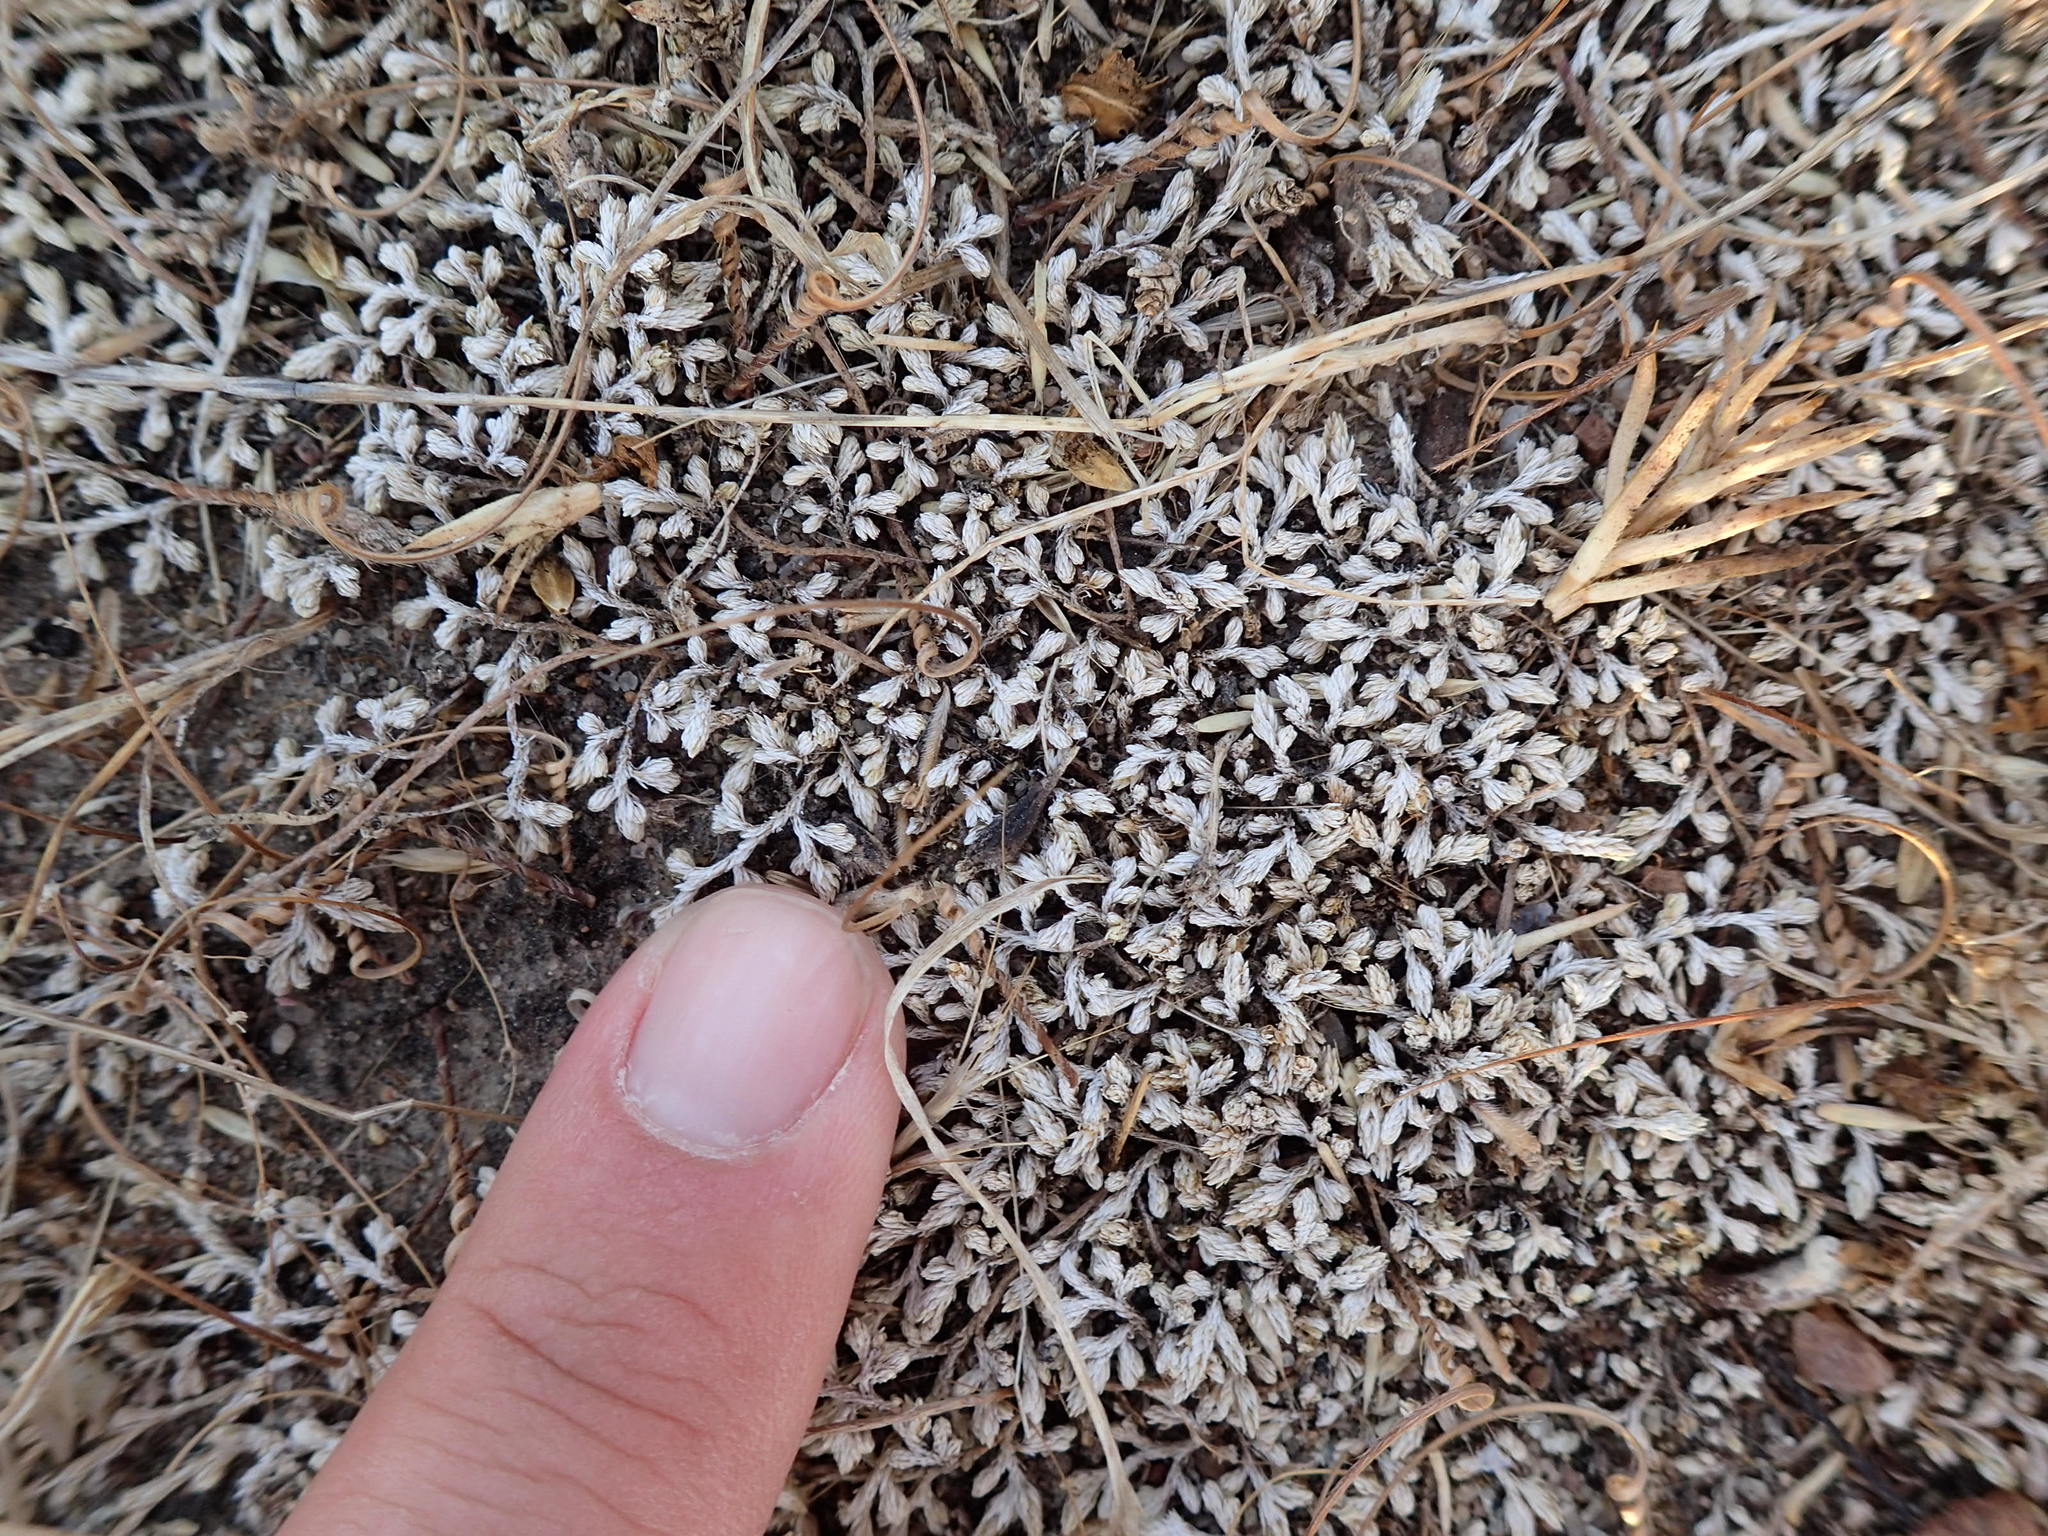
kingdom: Plantae
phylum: Tracheophyta
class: Lycopodiopsida
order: Selaginellales
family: Selaginellaceae
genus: Selaginella
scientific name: Selaginella cinerascens
